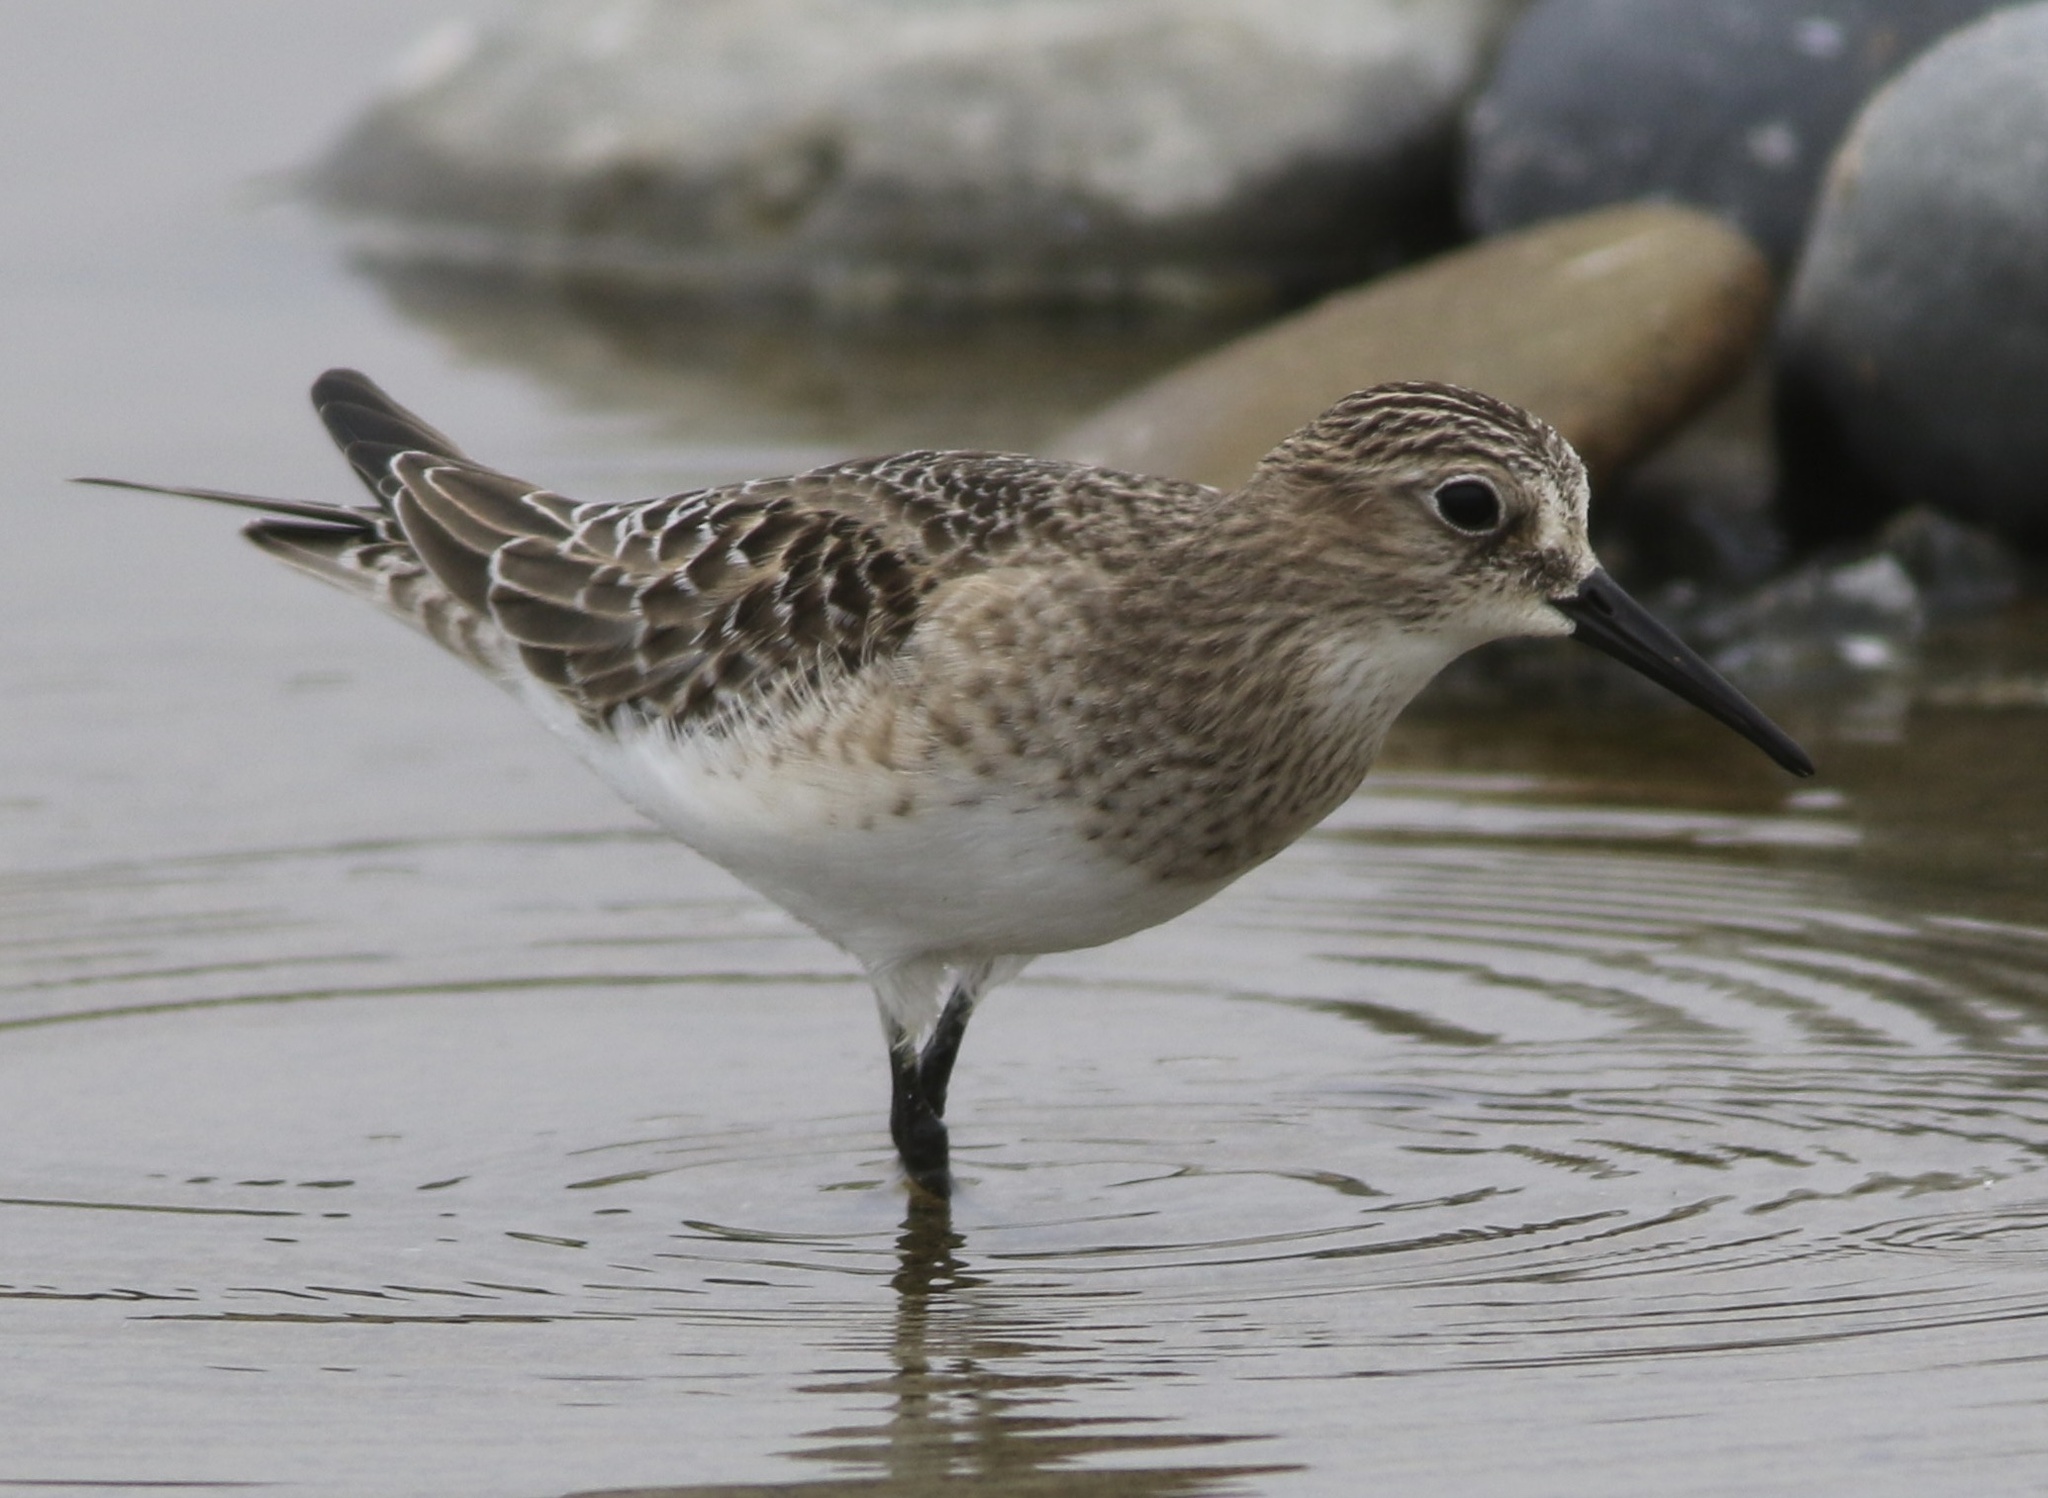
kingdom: Animalia
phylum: Chordata
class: Aves
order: Charadriiformes
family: Scolopacidae
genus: Calidris
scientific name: Calidris bairdii
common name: Baird's sandpiper
